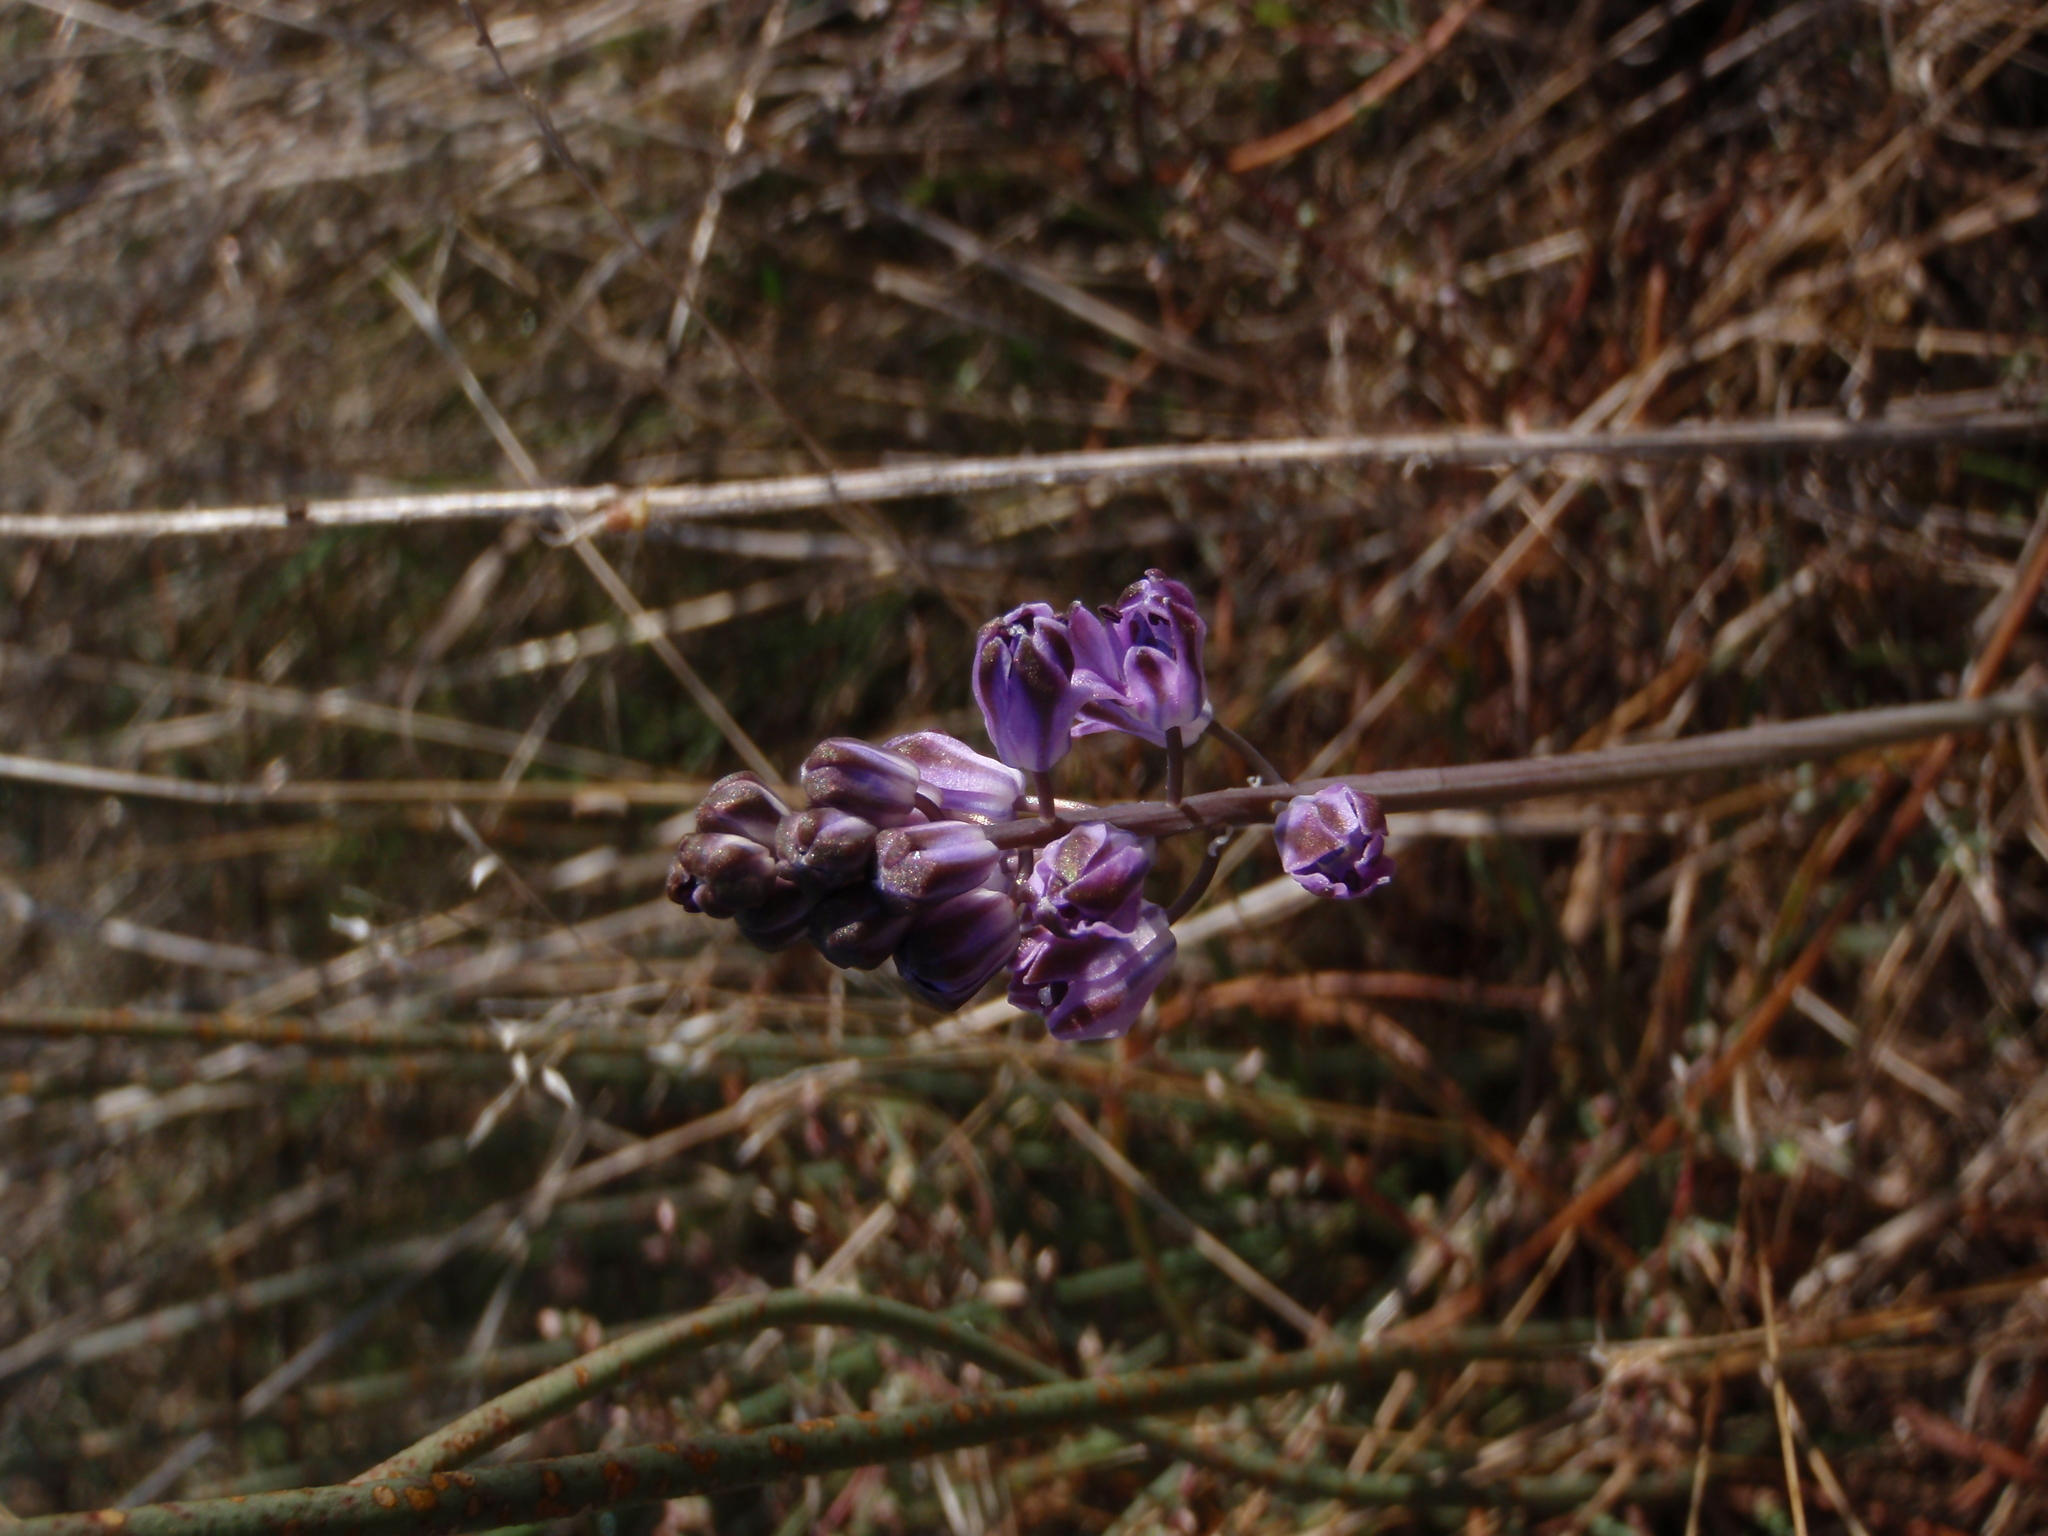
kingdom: Plantae
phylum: Tracheophyta
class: Liliopsida
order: Asparagales
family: Asparagaceae
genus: Prospero
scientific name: Prospero autumnale
